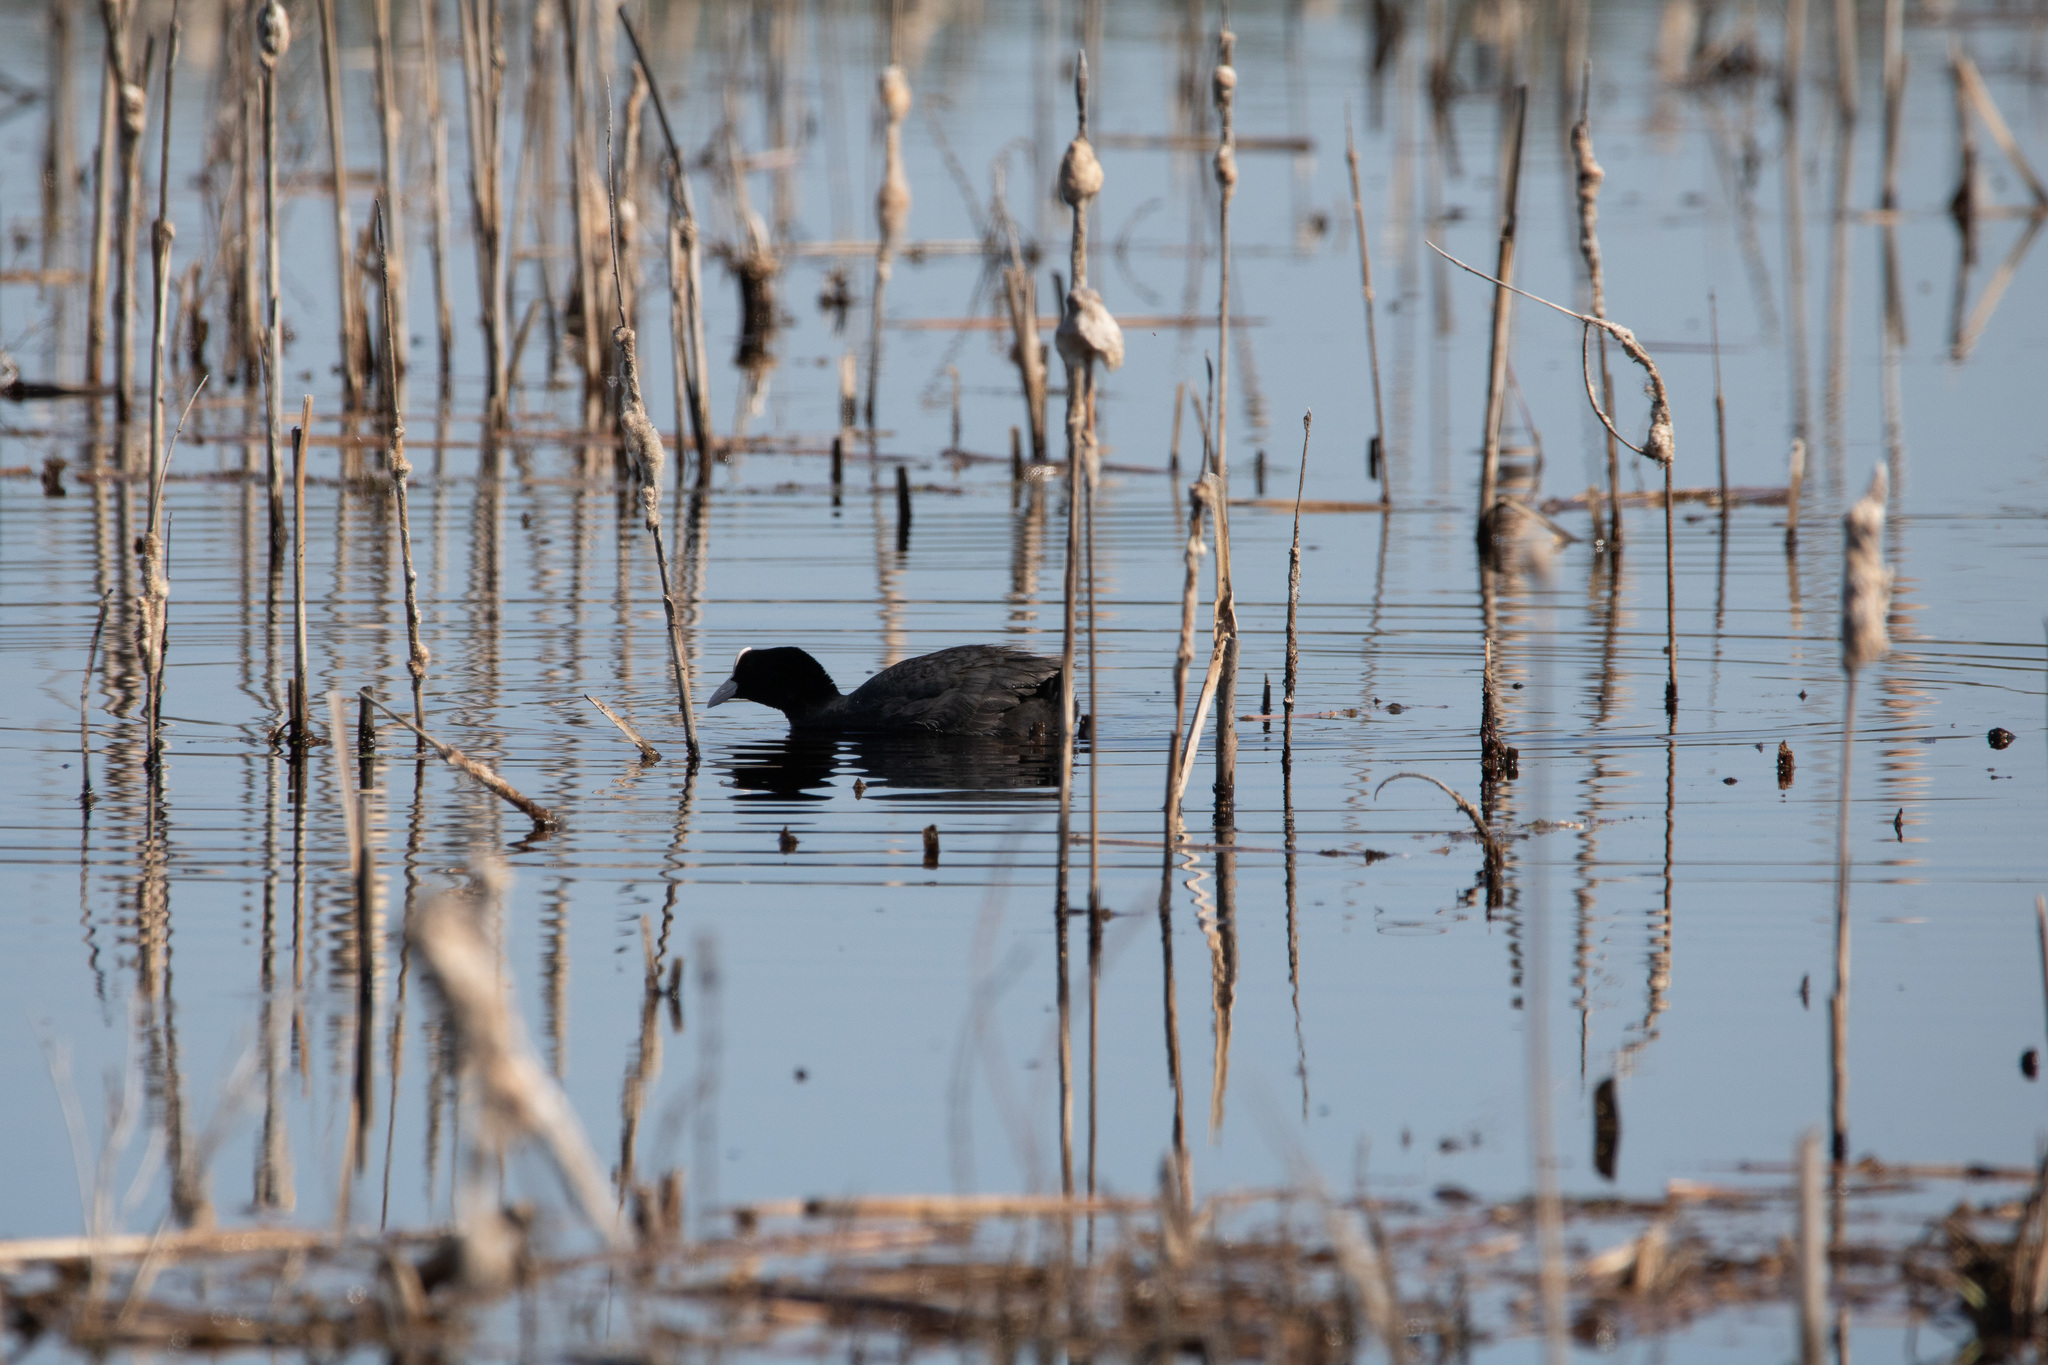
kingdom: Animalia
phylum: Chordata
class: Aves
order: Gruiformes
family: Rallidae
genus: Fulica
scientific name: Fulica atra
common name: Eurasian coot
